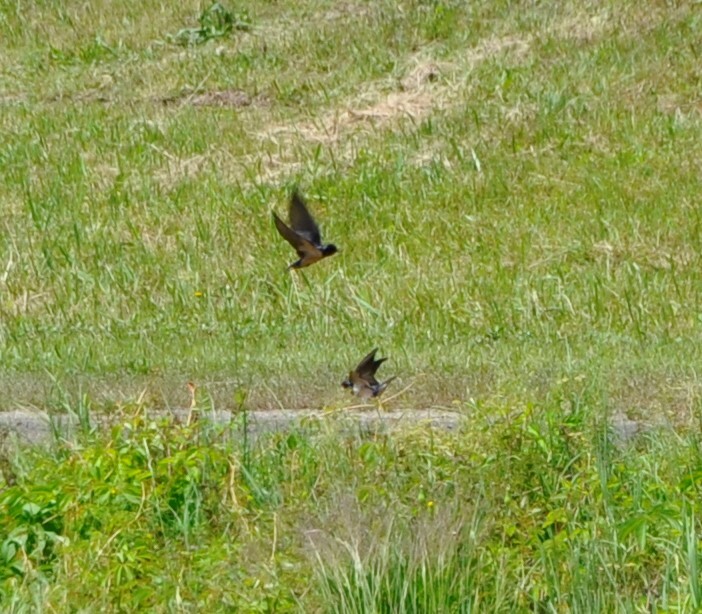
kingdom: Animalia
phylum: Chordata
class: Aves
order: Passeriformes
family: Hirundinidae
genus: Hirundo
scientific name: Hirundo rustica
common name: Barn swallow
